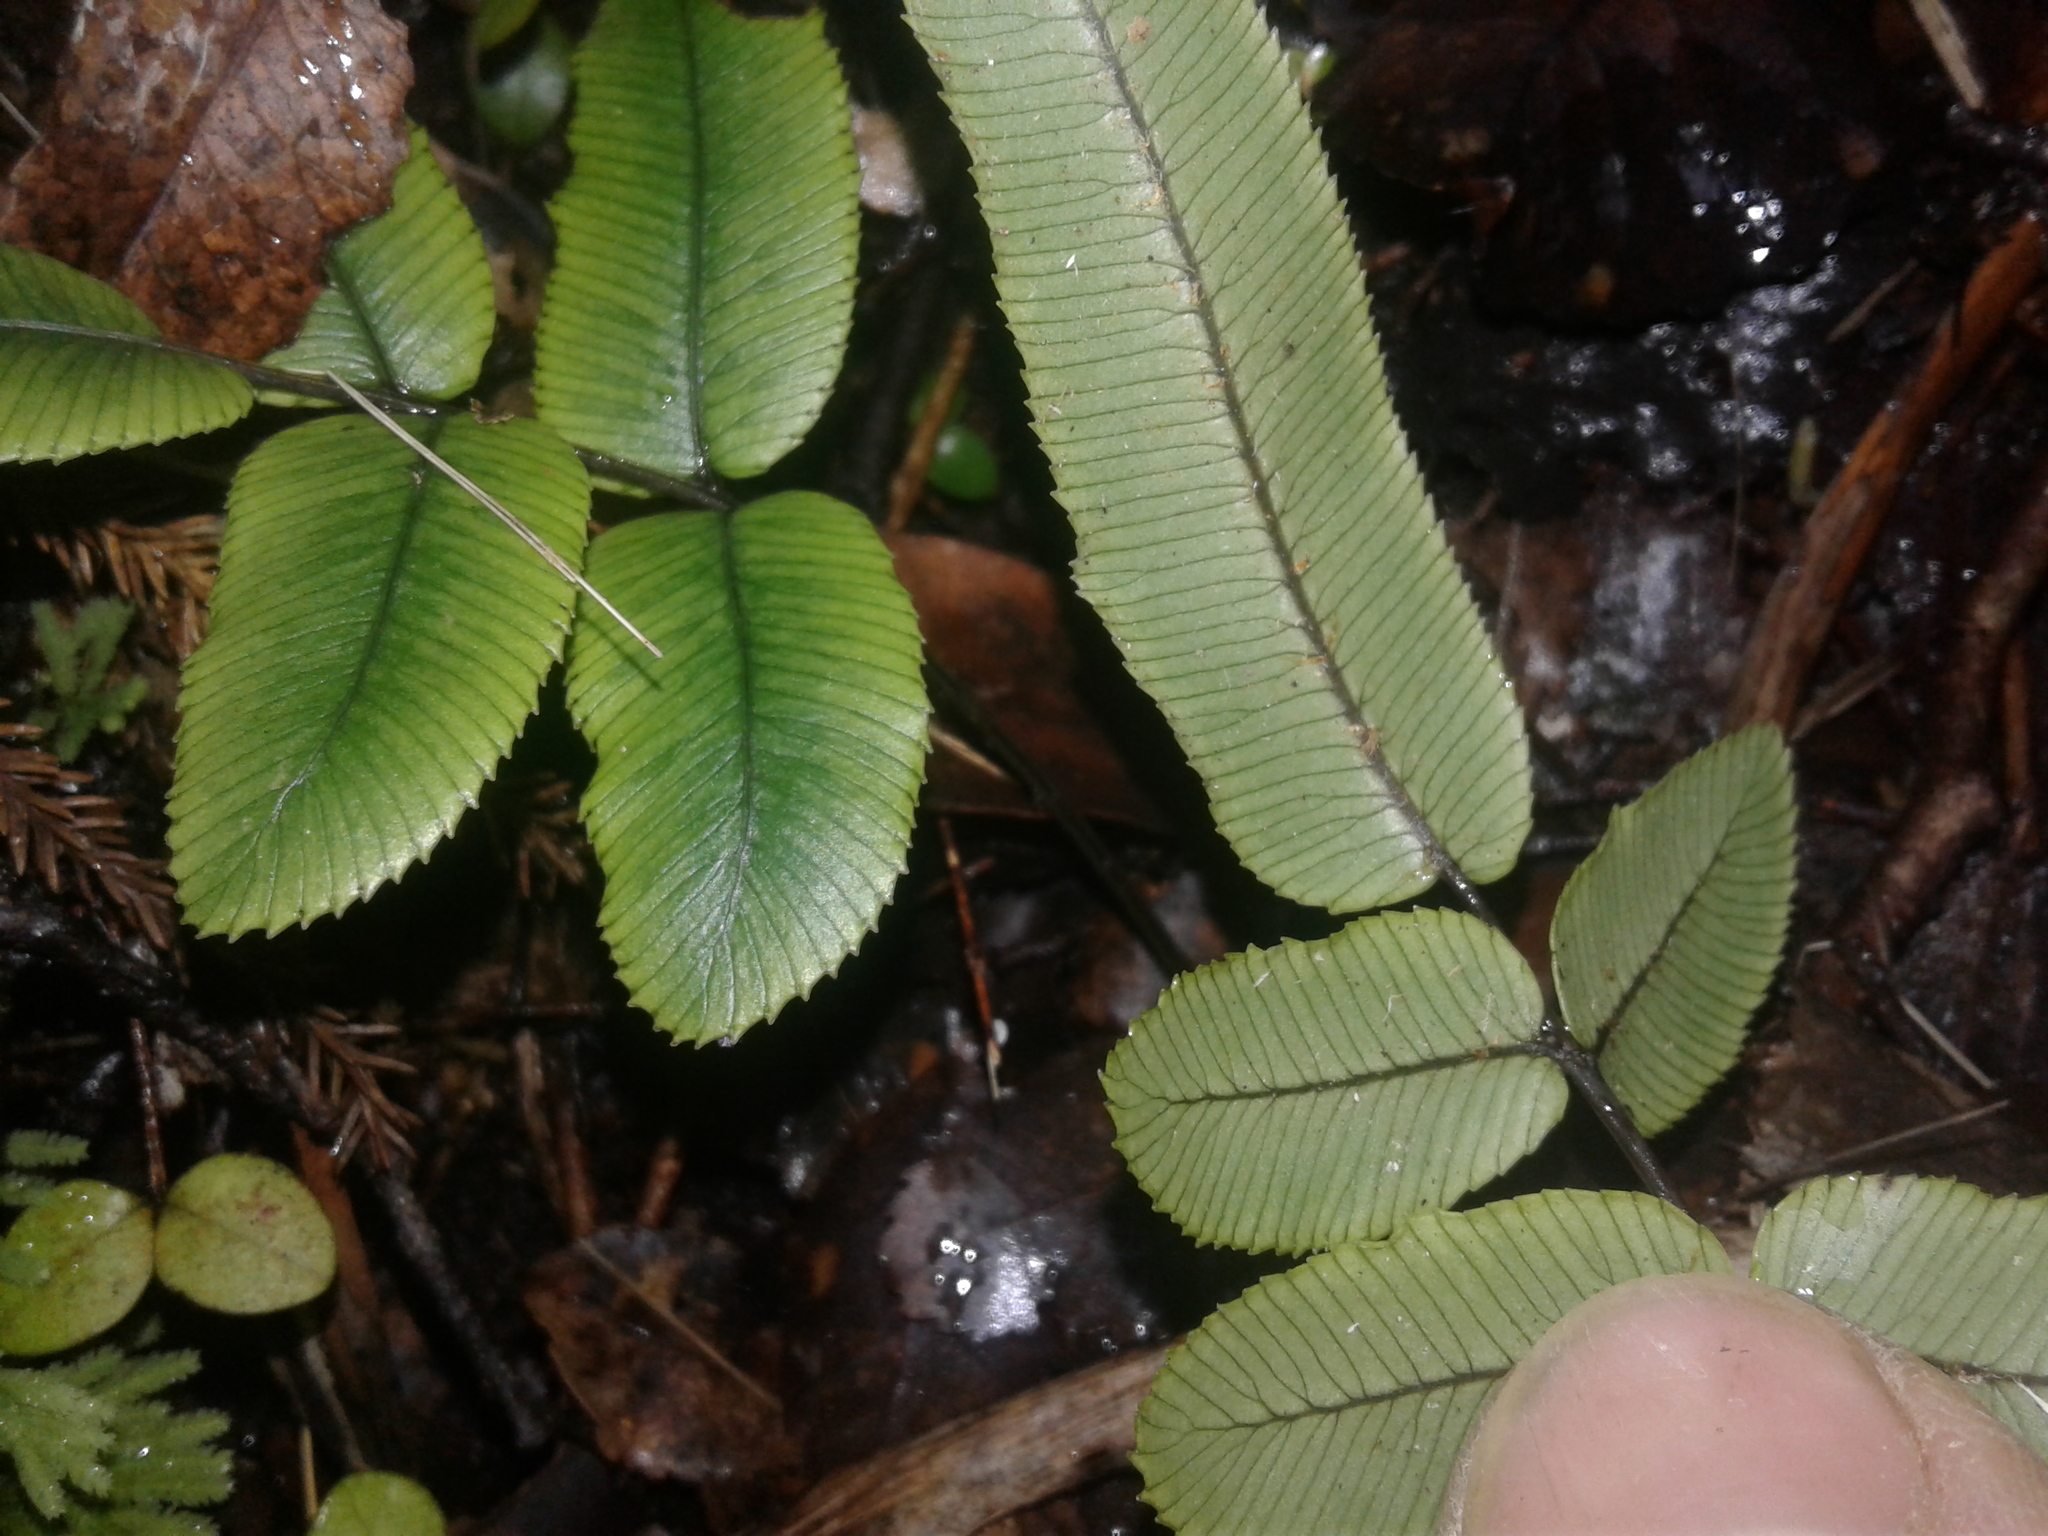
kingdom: Plantae
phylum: Tracheophyta
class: Polypodiopsida
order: Polypodiales
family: Blechnaceae
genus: Parablechnum
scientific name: Parablechnum procerum
